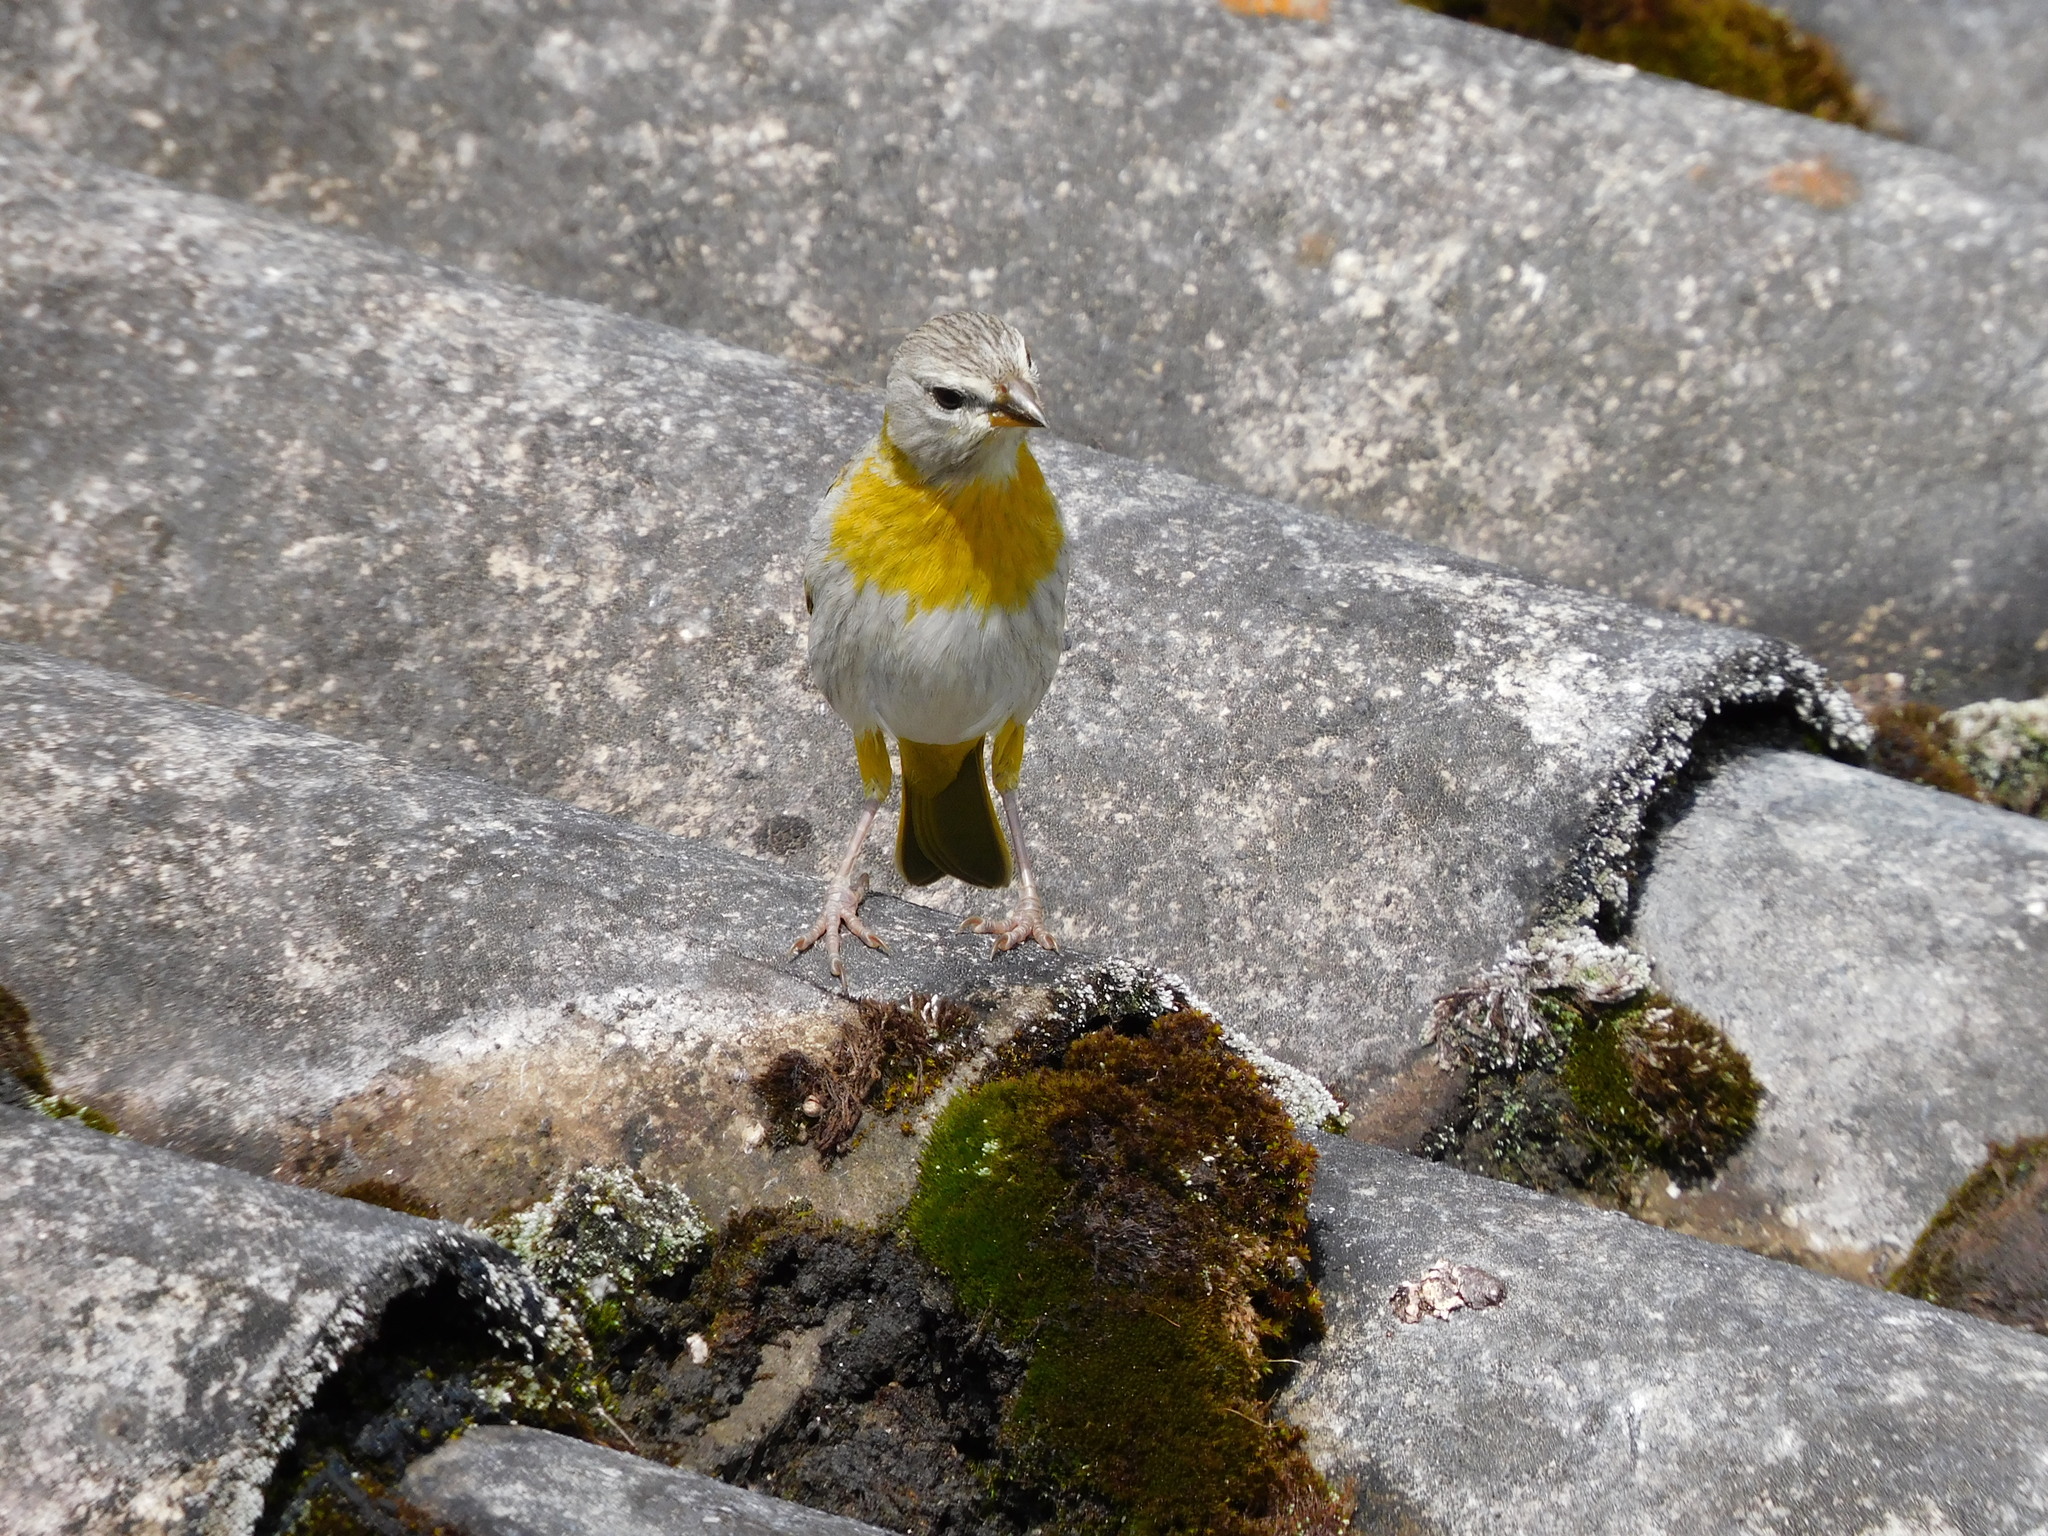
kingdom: Animalia
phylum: Chordata
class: Aves
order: Passeriformes
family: Thraupidae
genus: Sicalis
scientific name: Sicalis flaveola
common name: Saffron finch
